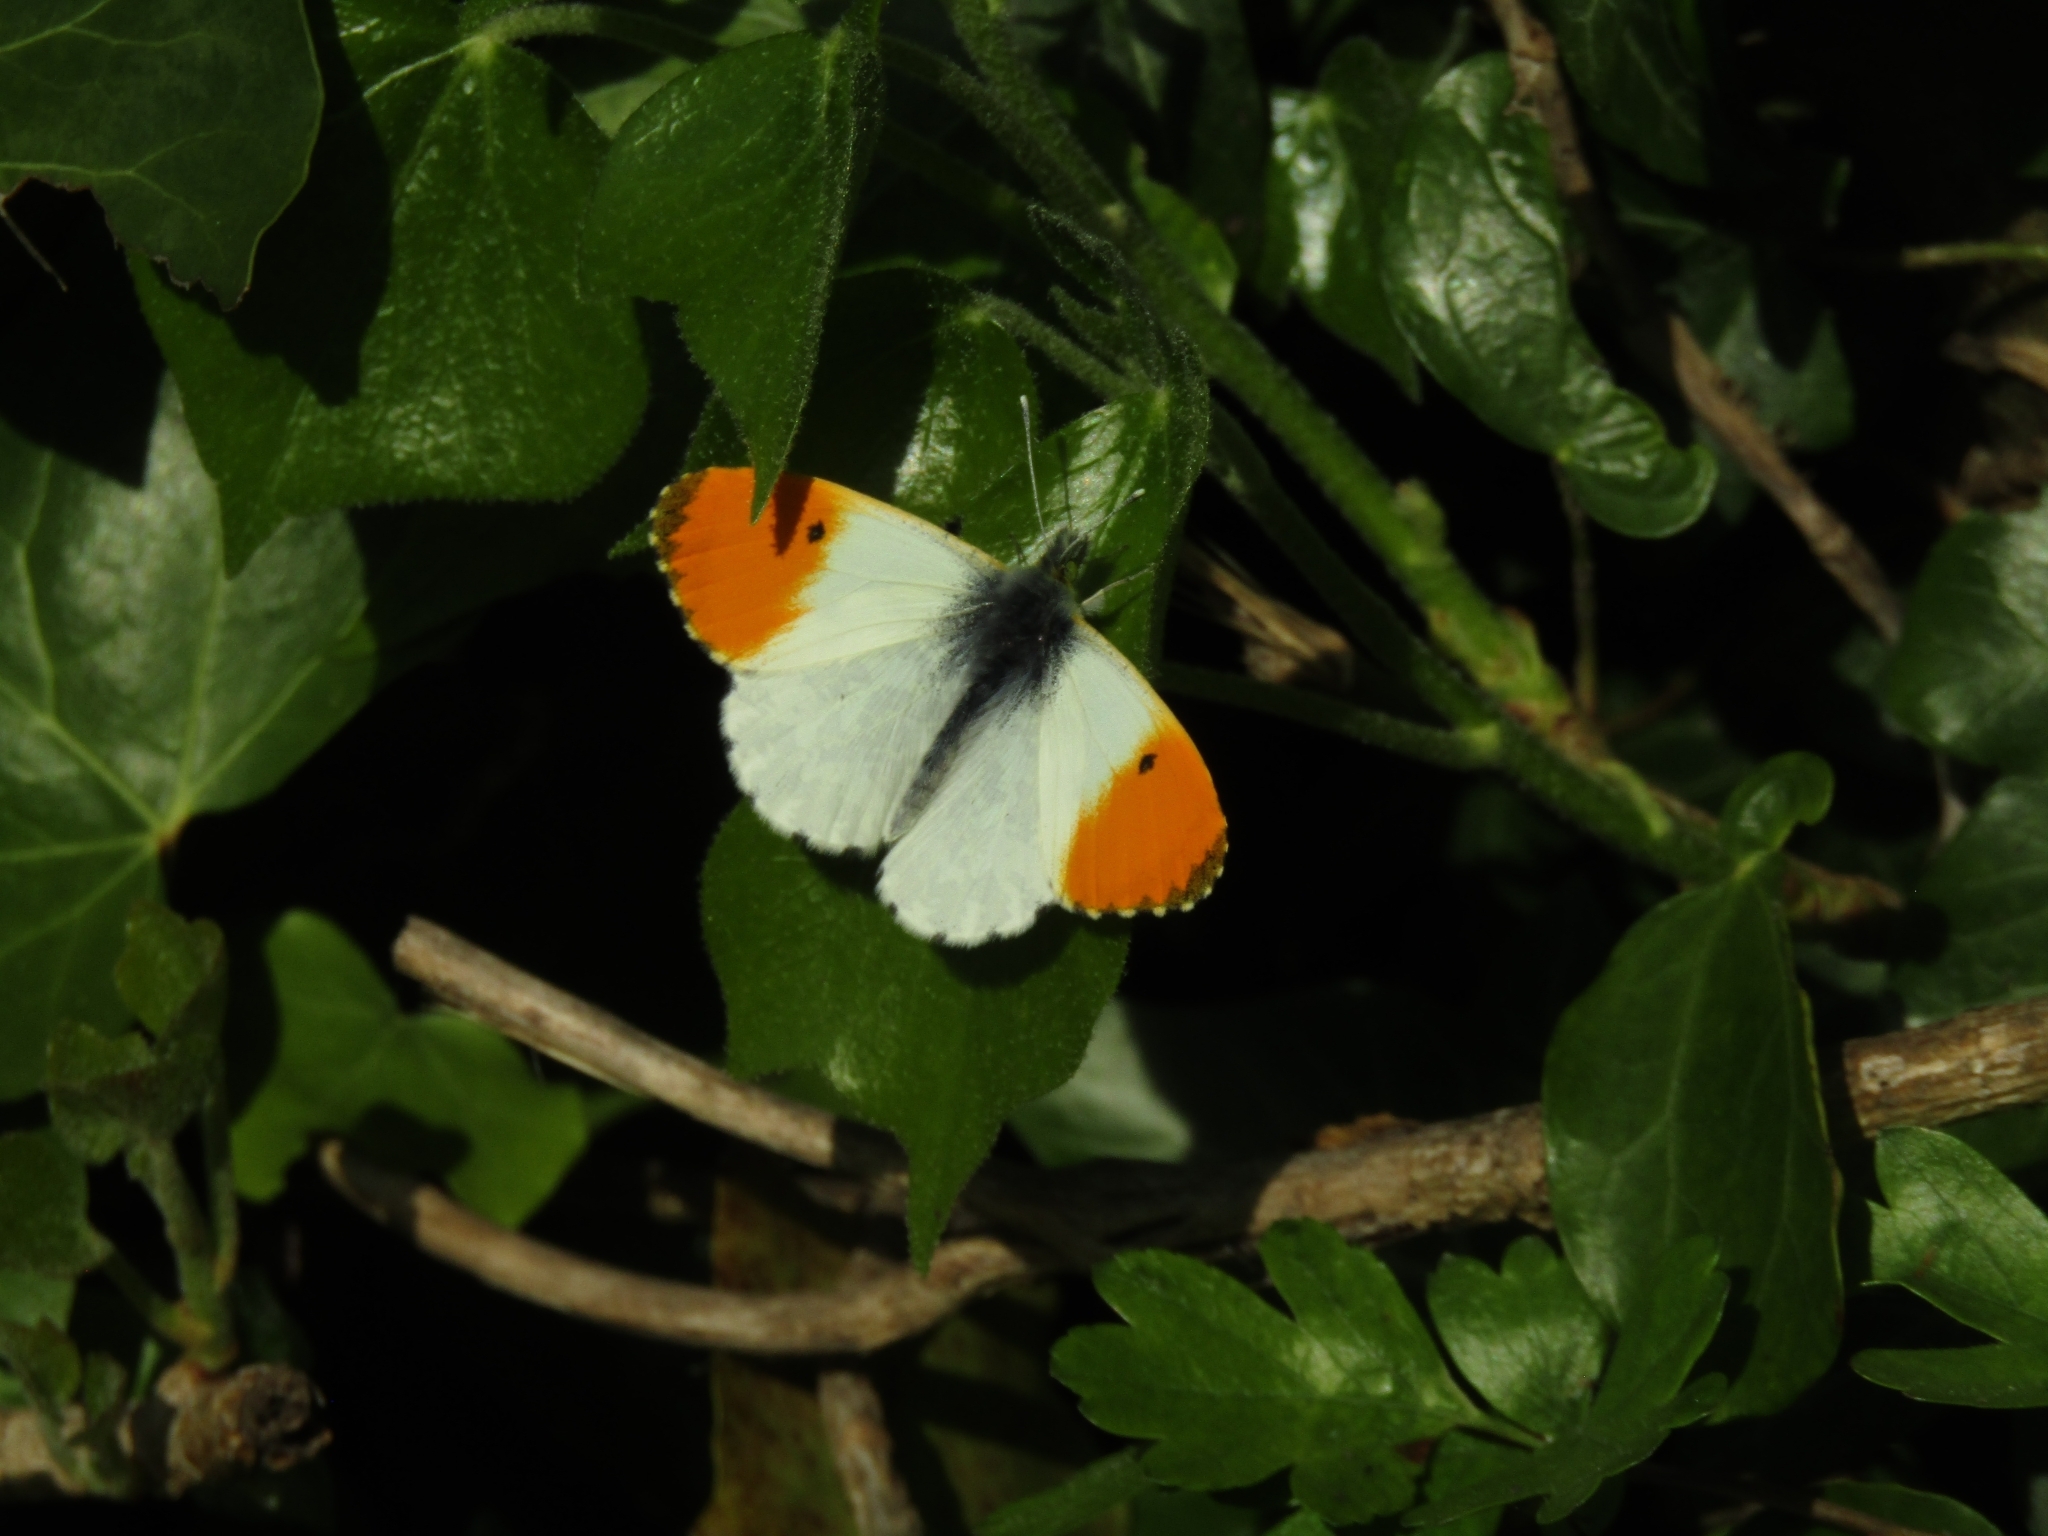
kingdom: Animalia
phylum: Arthropoda
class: Insecta
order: Lepidoptera
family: Pieridae
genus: Anthocharis
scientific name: Anthocharis cardamines
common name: Orange-tip
